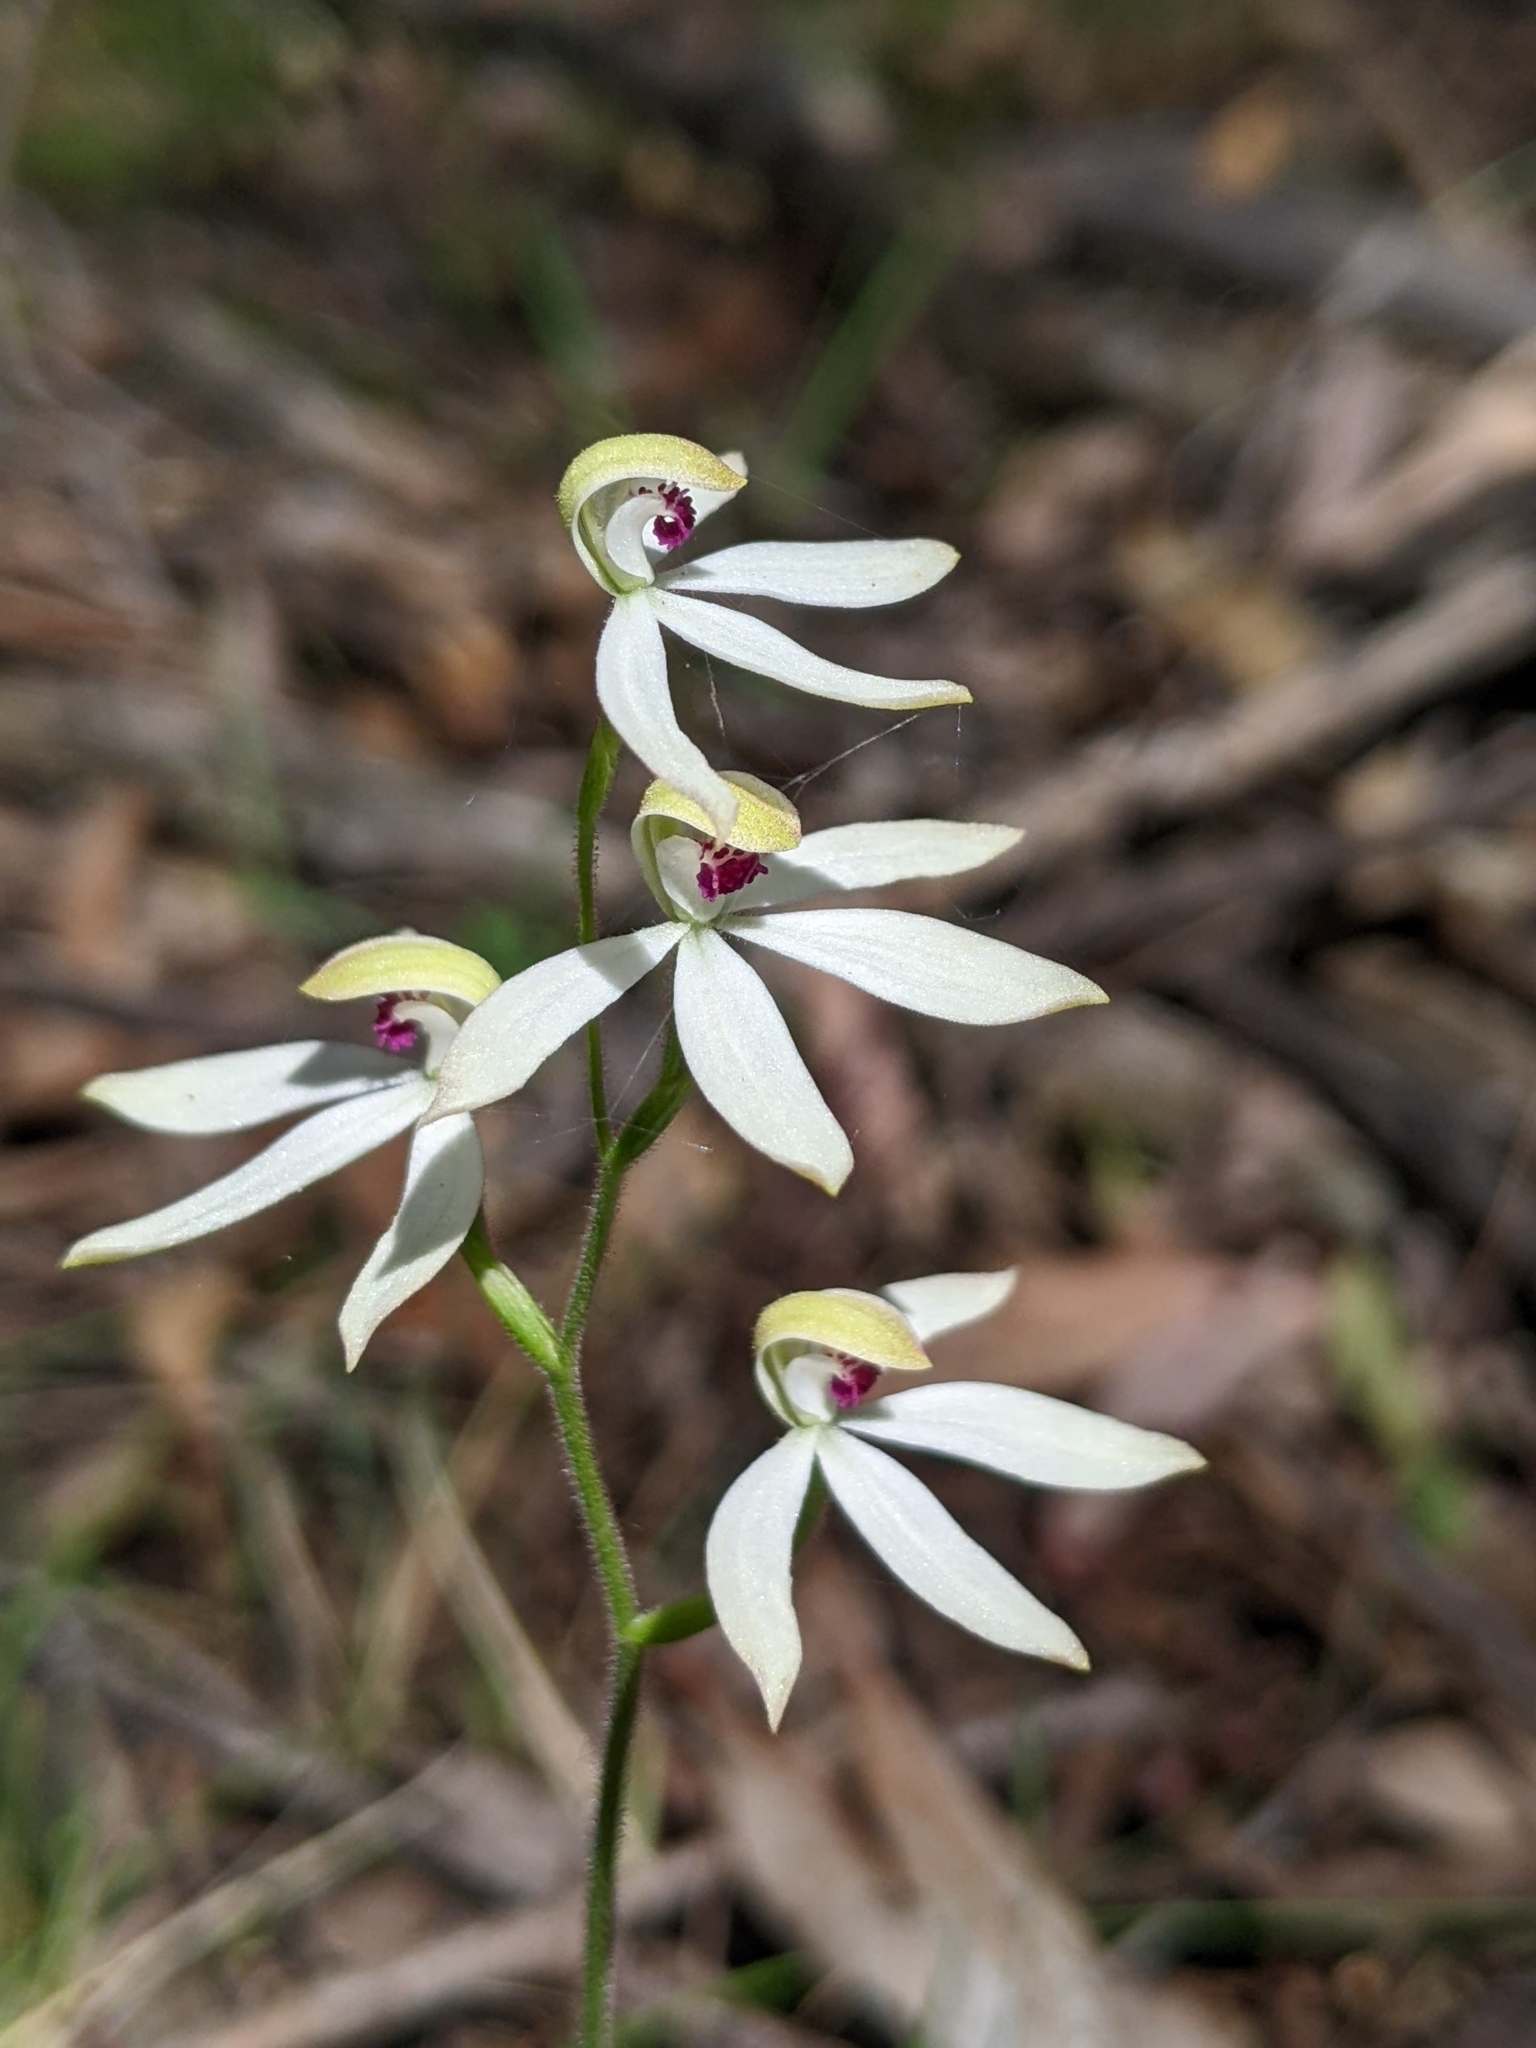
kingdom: Plantae
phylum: Tracheophyta
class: Liliopsida
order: Asparagales
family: Orchidaceae
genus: Caladenia
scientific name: Caladenia cucullata
